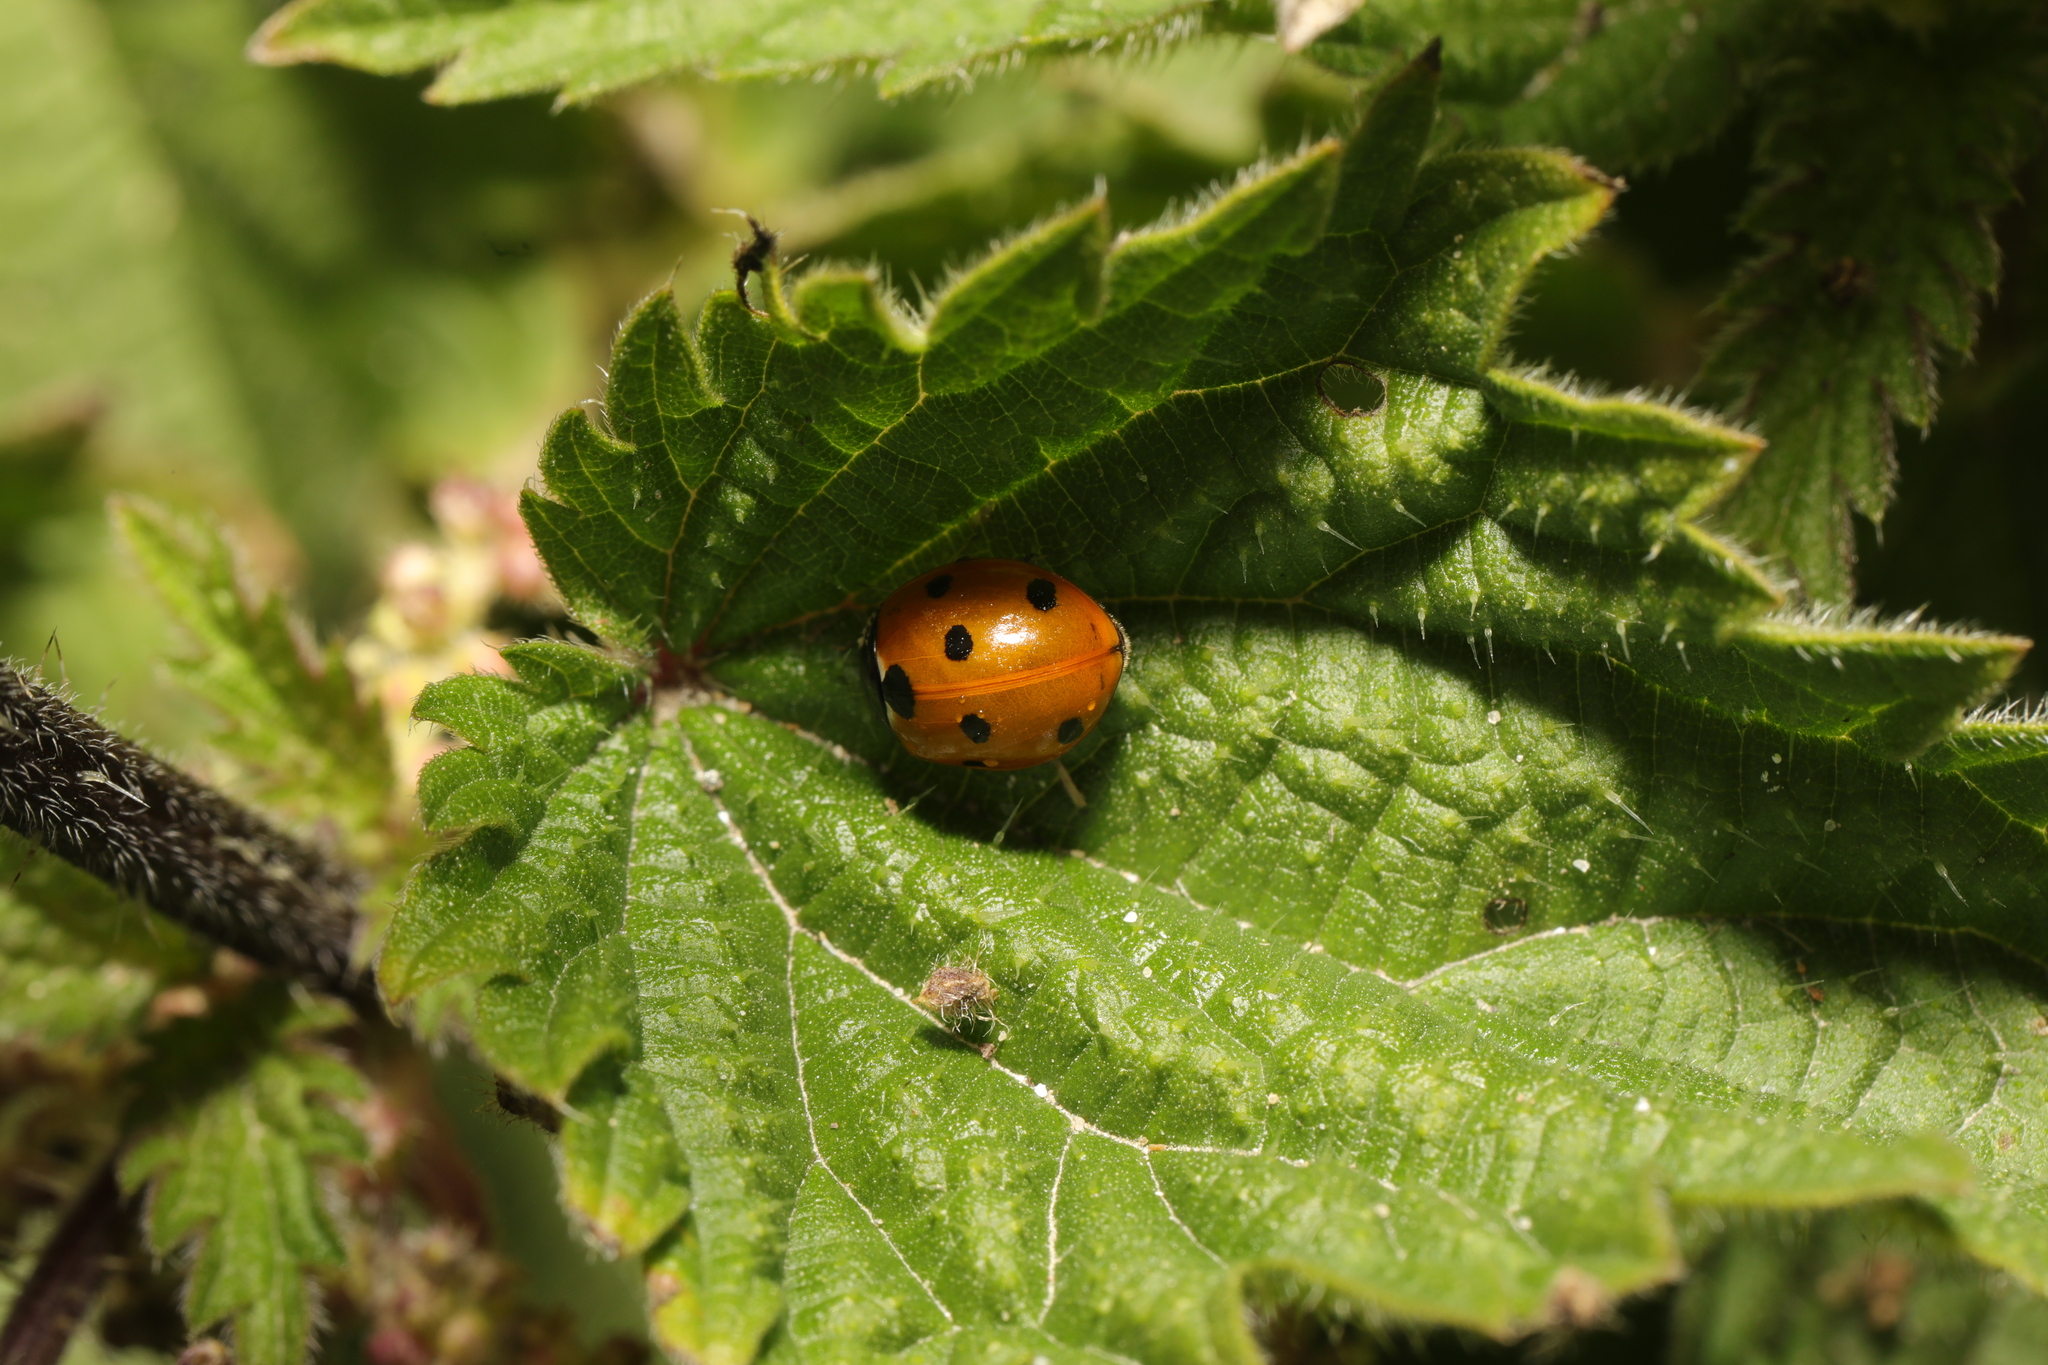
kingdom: Animalia
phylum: Arthropoda
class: Insecta
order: Coleoptera
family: Coccinellidae
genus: Coccinella
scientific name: Coccinella septempunctata
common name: Sevenspotted lady beetle
